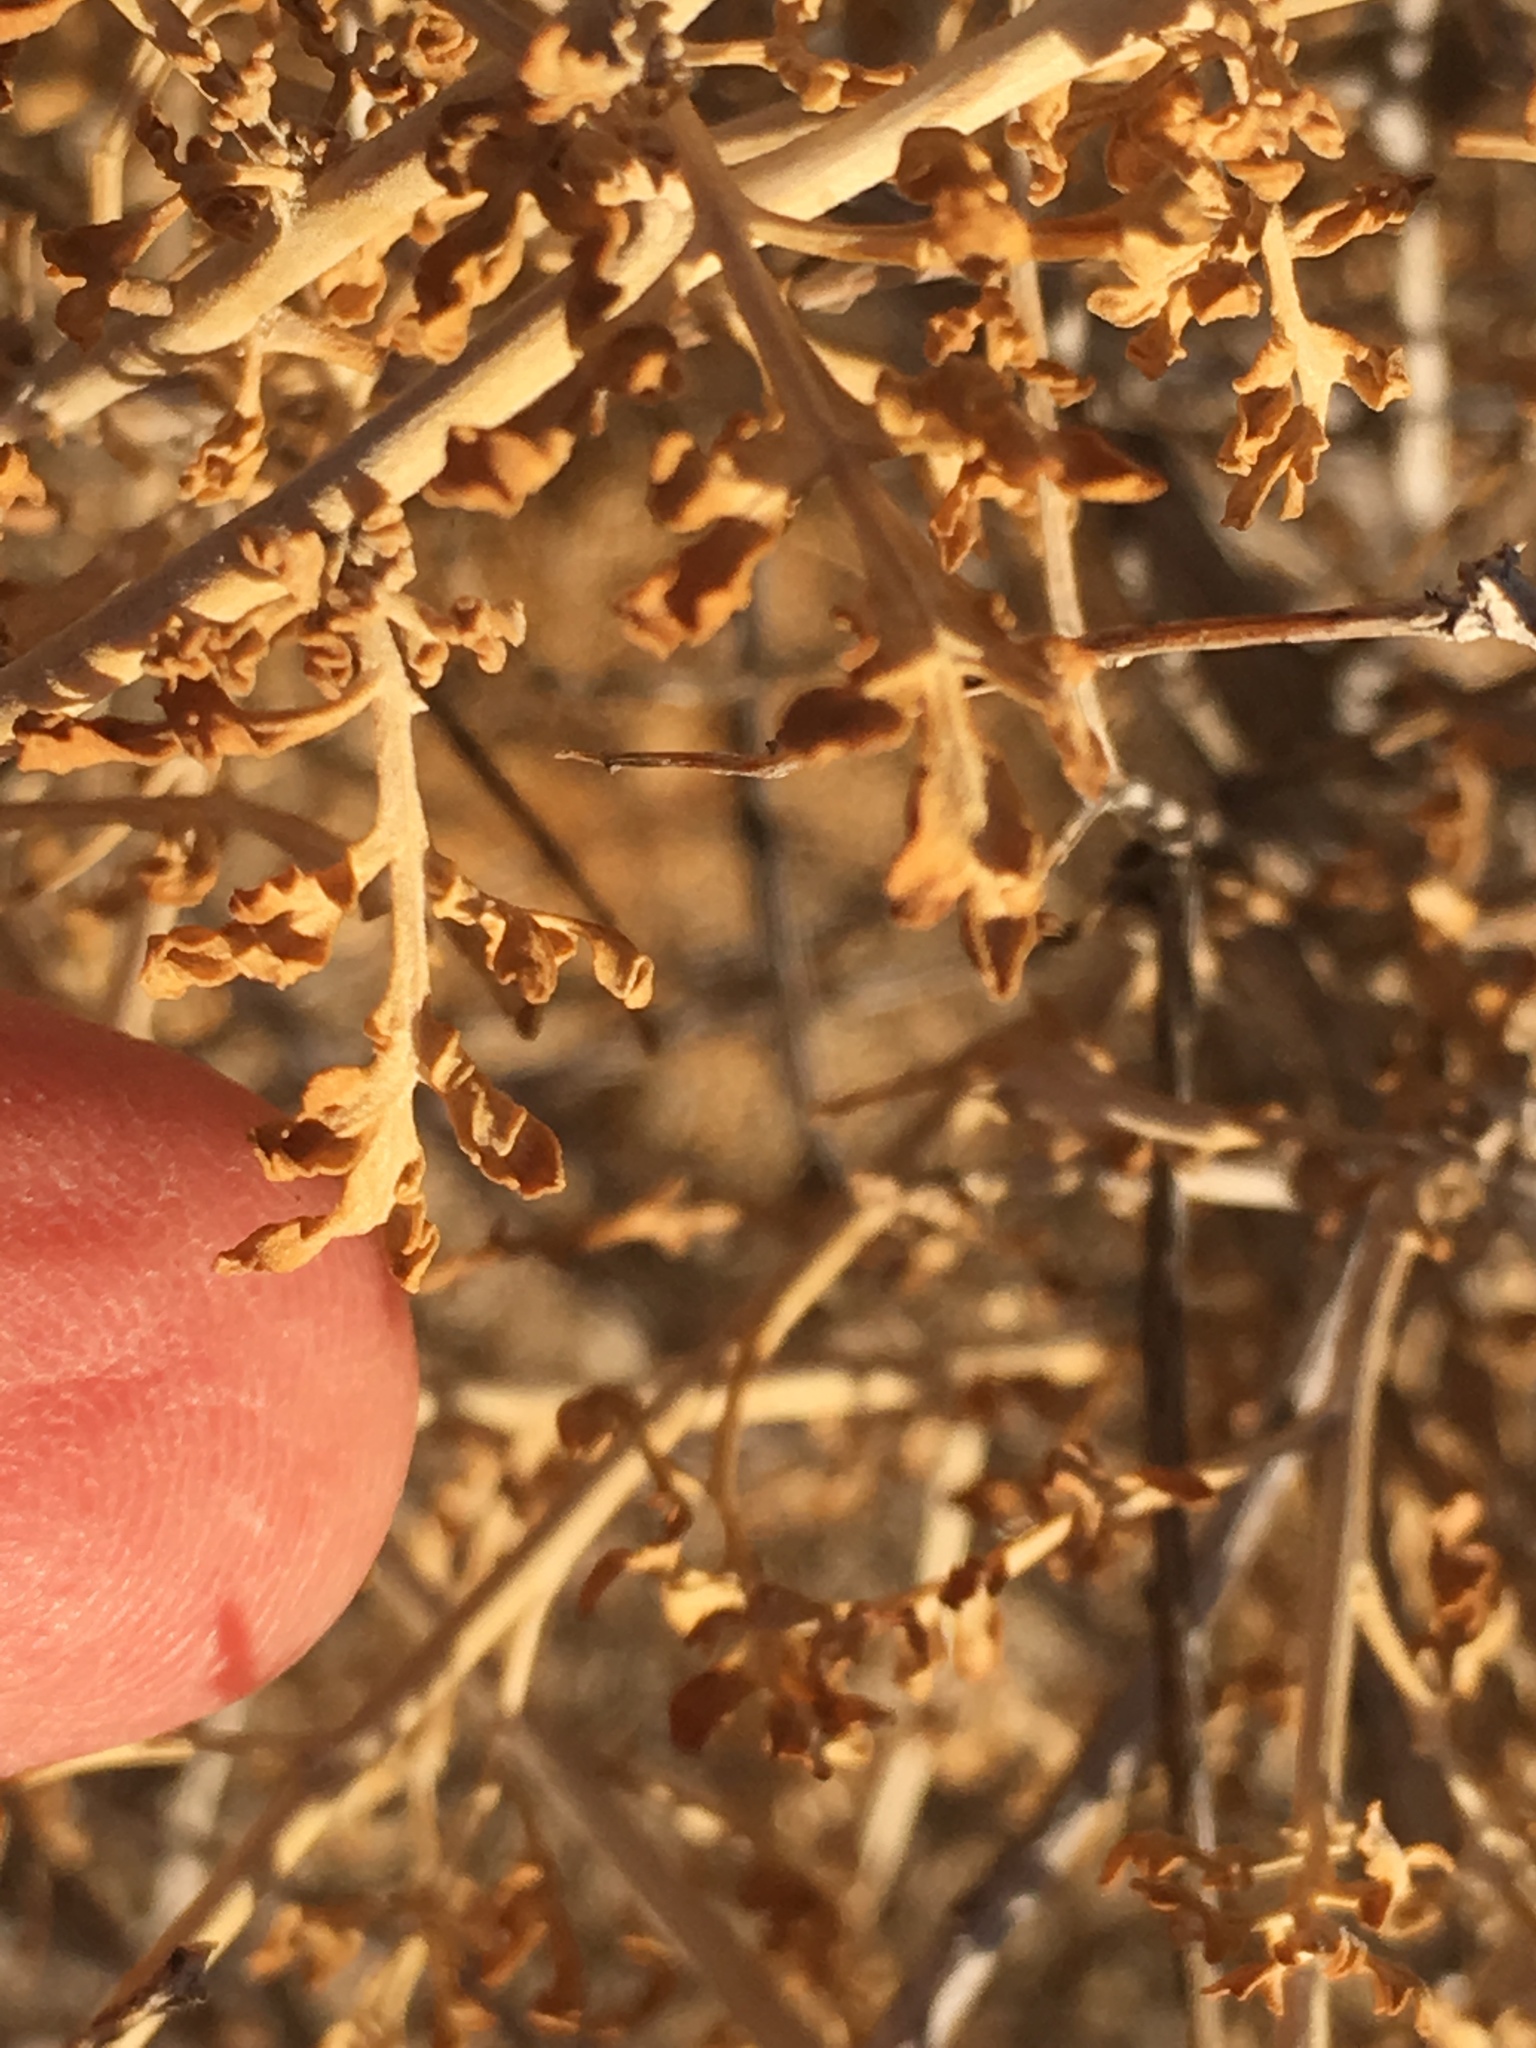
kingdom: Plantae
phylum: Tracheophyta
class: Magnoliopsida
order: Asterales
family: Asteraceae
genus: Ambrosia
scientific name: Ambrosia dumosa
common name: Bur-sage
